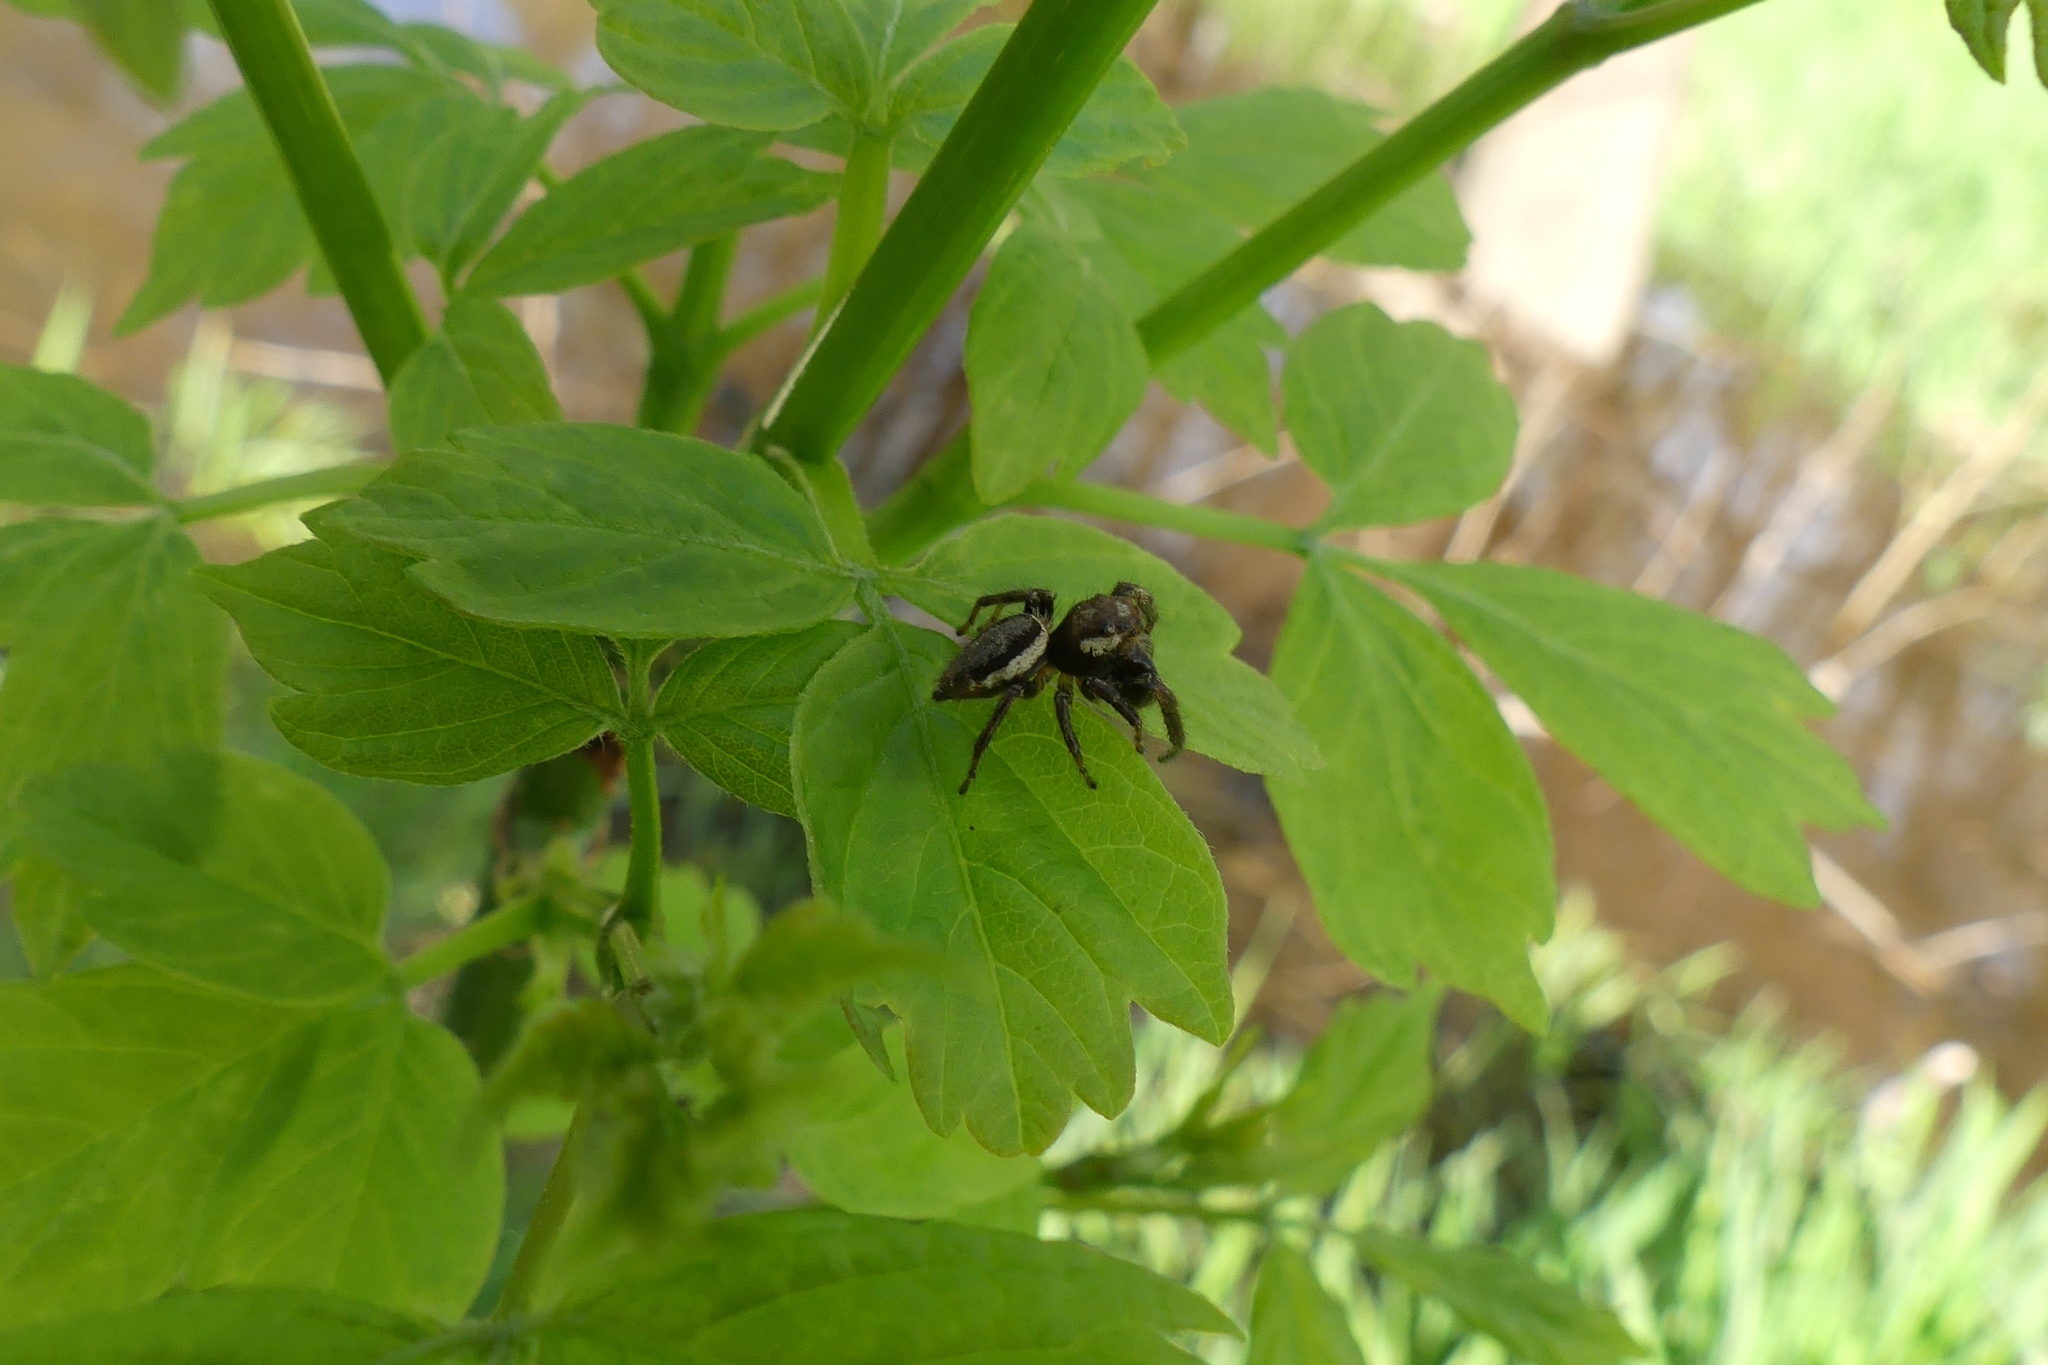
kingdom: Animalia
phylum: Arthropoda
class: Arachnida
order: Araneae
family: Salticidae
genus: Eris
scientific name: Eris militaris
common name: Bronze jumper
